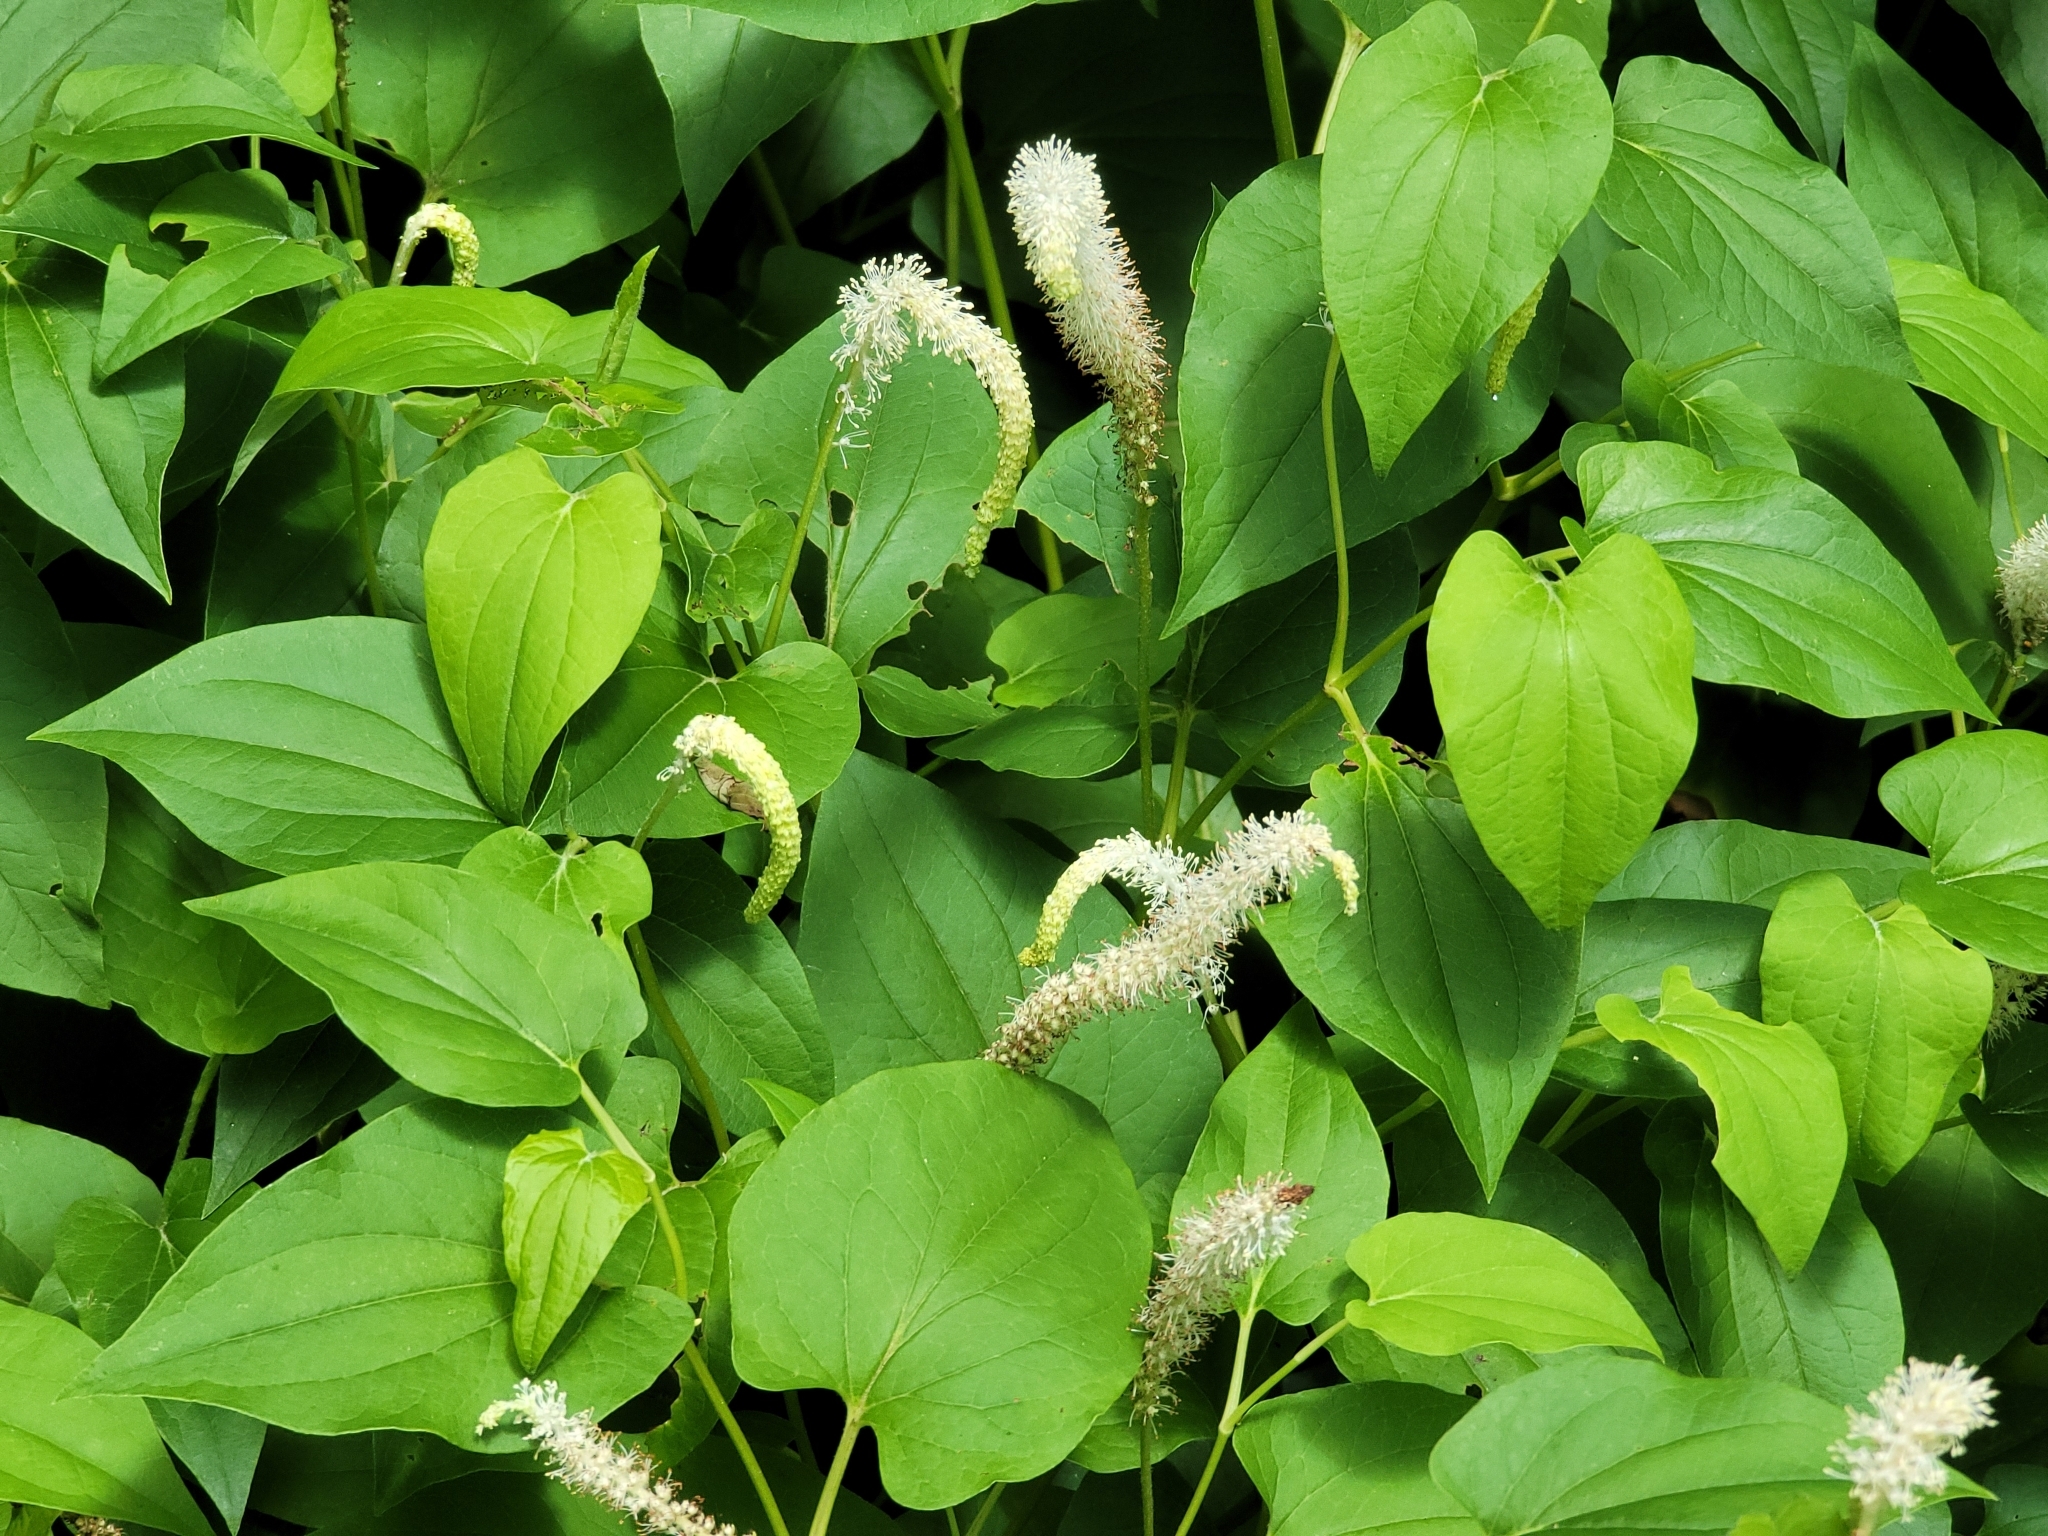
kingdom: Plantae
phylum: Tracheophyta
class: Magnoliopsida
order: Piperales
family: Saururaceae
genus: Saururus
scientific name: Saururus cernuus
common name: Lizard's-tail
